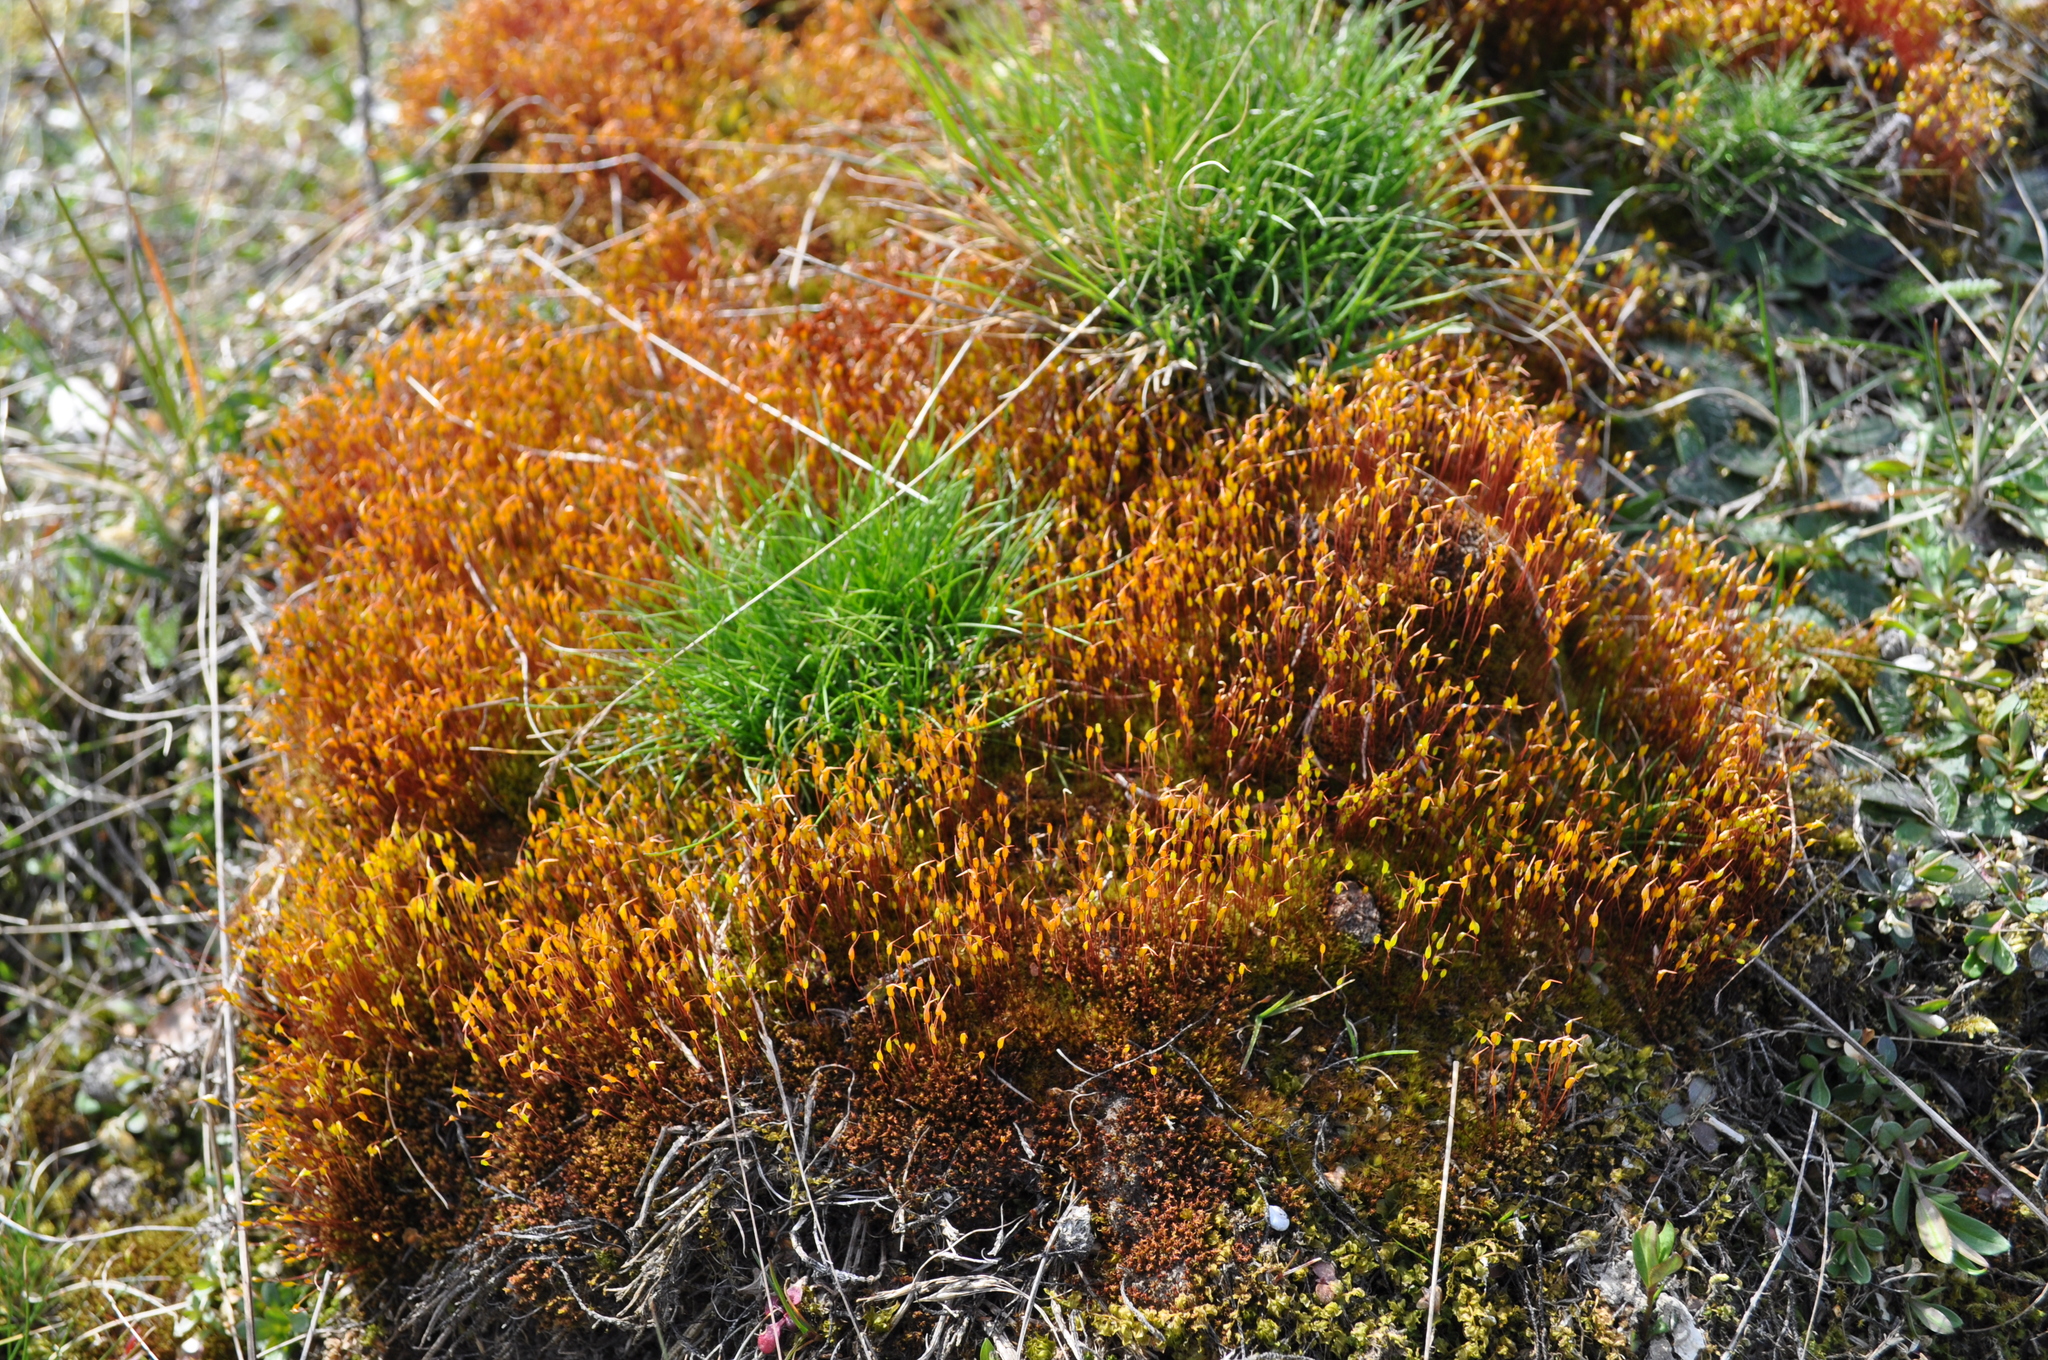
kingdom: Plantae
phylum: Bryophyta
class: Bryopsida
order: Dicranales
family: Ditrichaceae
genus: Ceratodon
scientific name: Ceratodon purpureus
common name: Redshank
